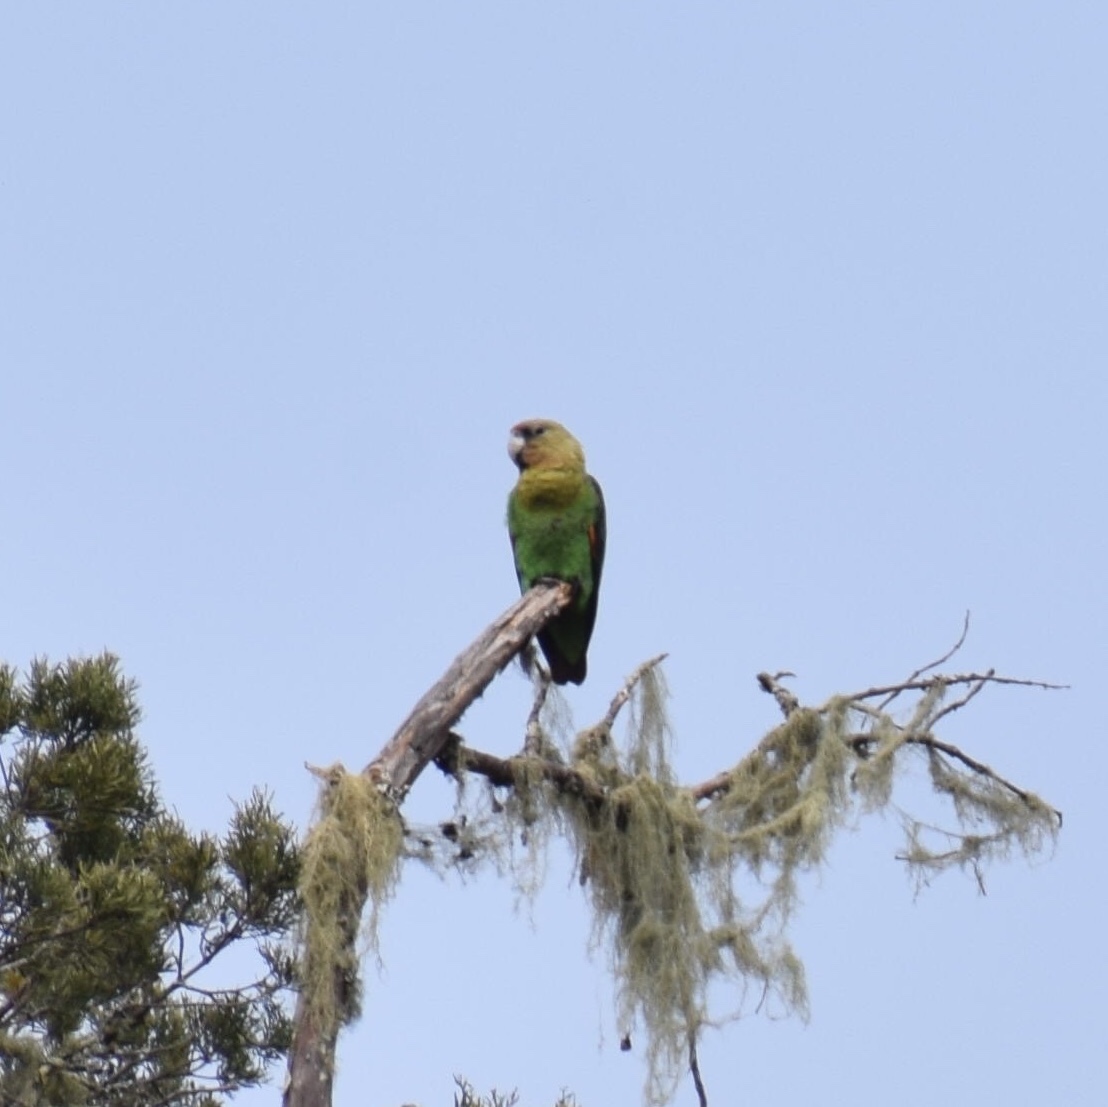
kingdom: Animalia
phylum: Chordata
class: Aves
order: Psittaciformes
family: Psittacidae
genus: Poicephalus
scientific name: Poicephalus robustus
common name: Cape parrot
